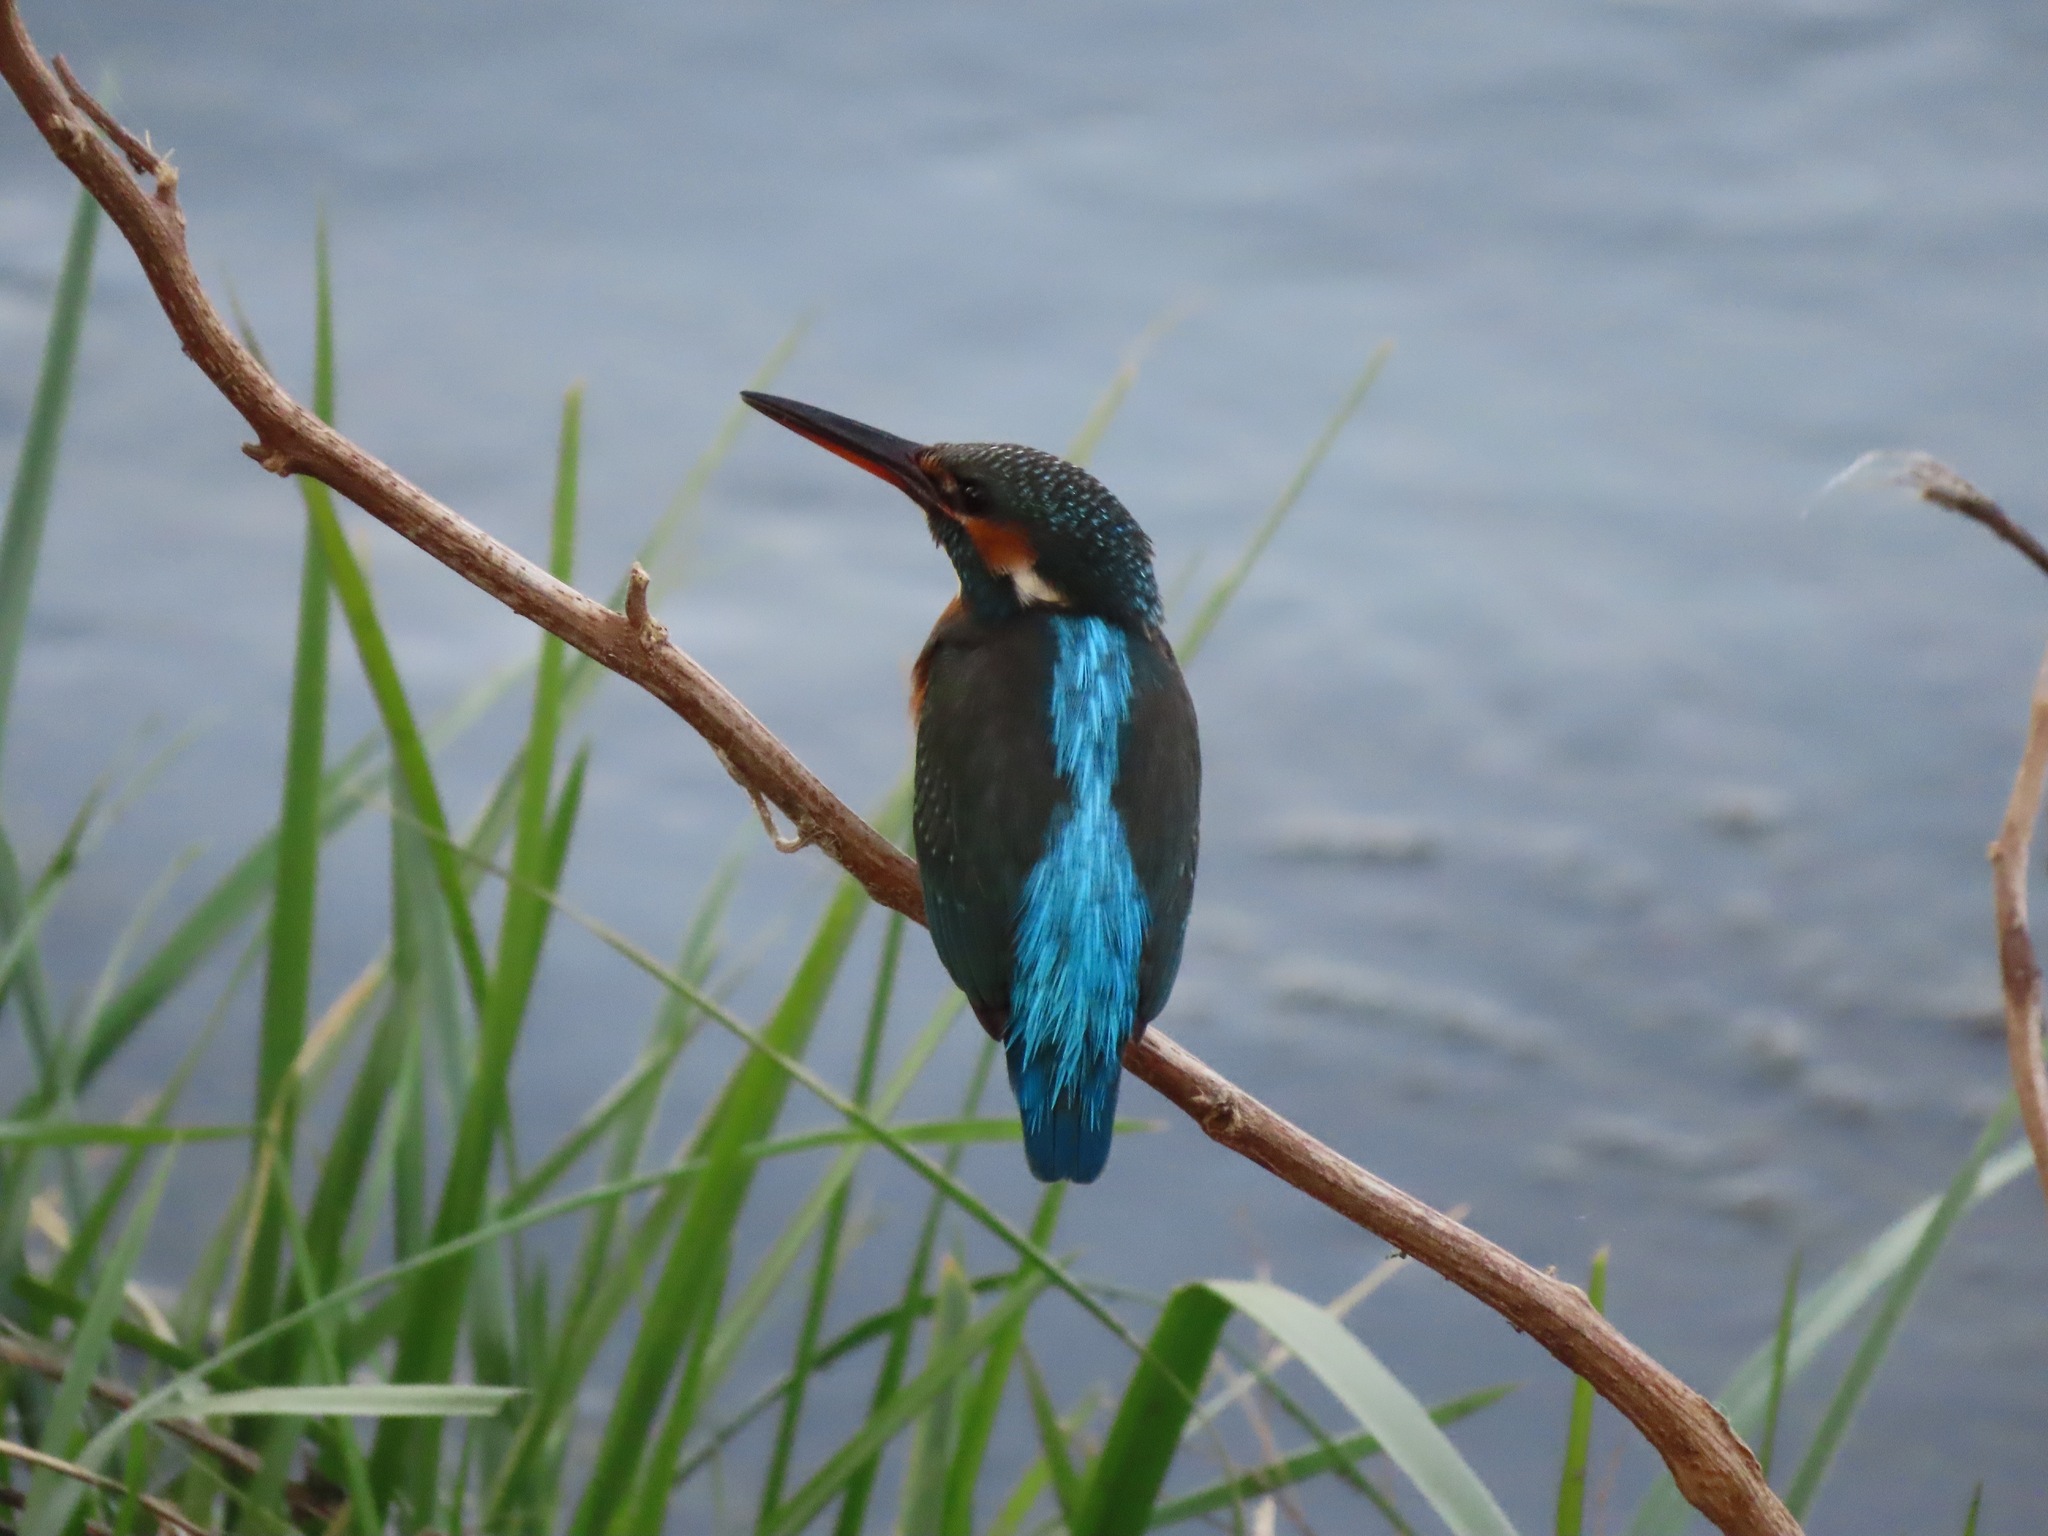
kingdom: Animalia
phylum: Chordata
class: Aves
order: Coraciiformes
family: Alcedinidae
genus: Alcedo
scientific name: Alcedo atthis
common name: Common kingfisher
